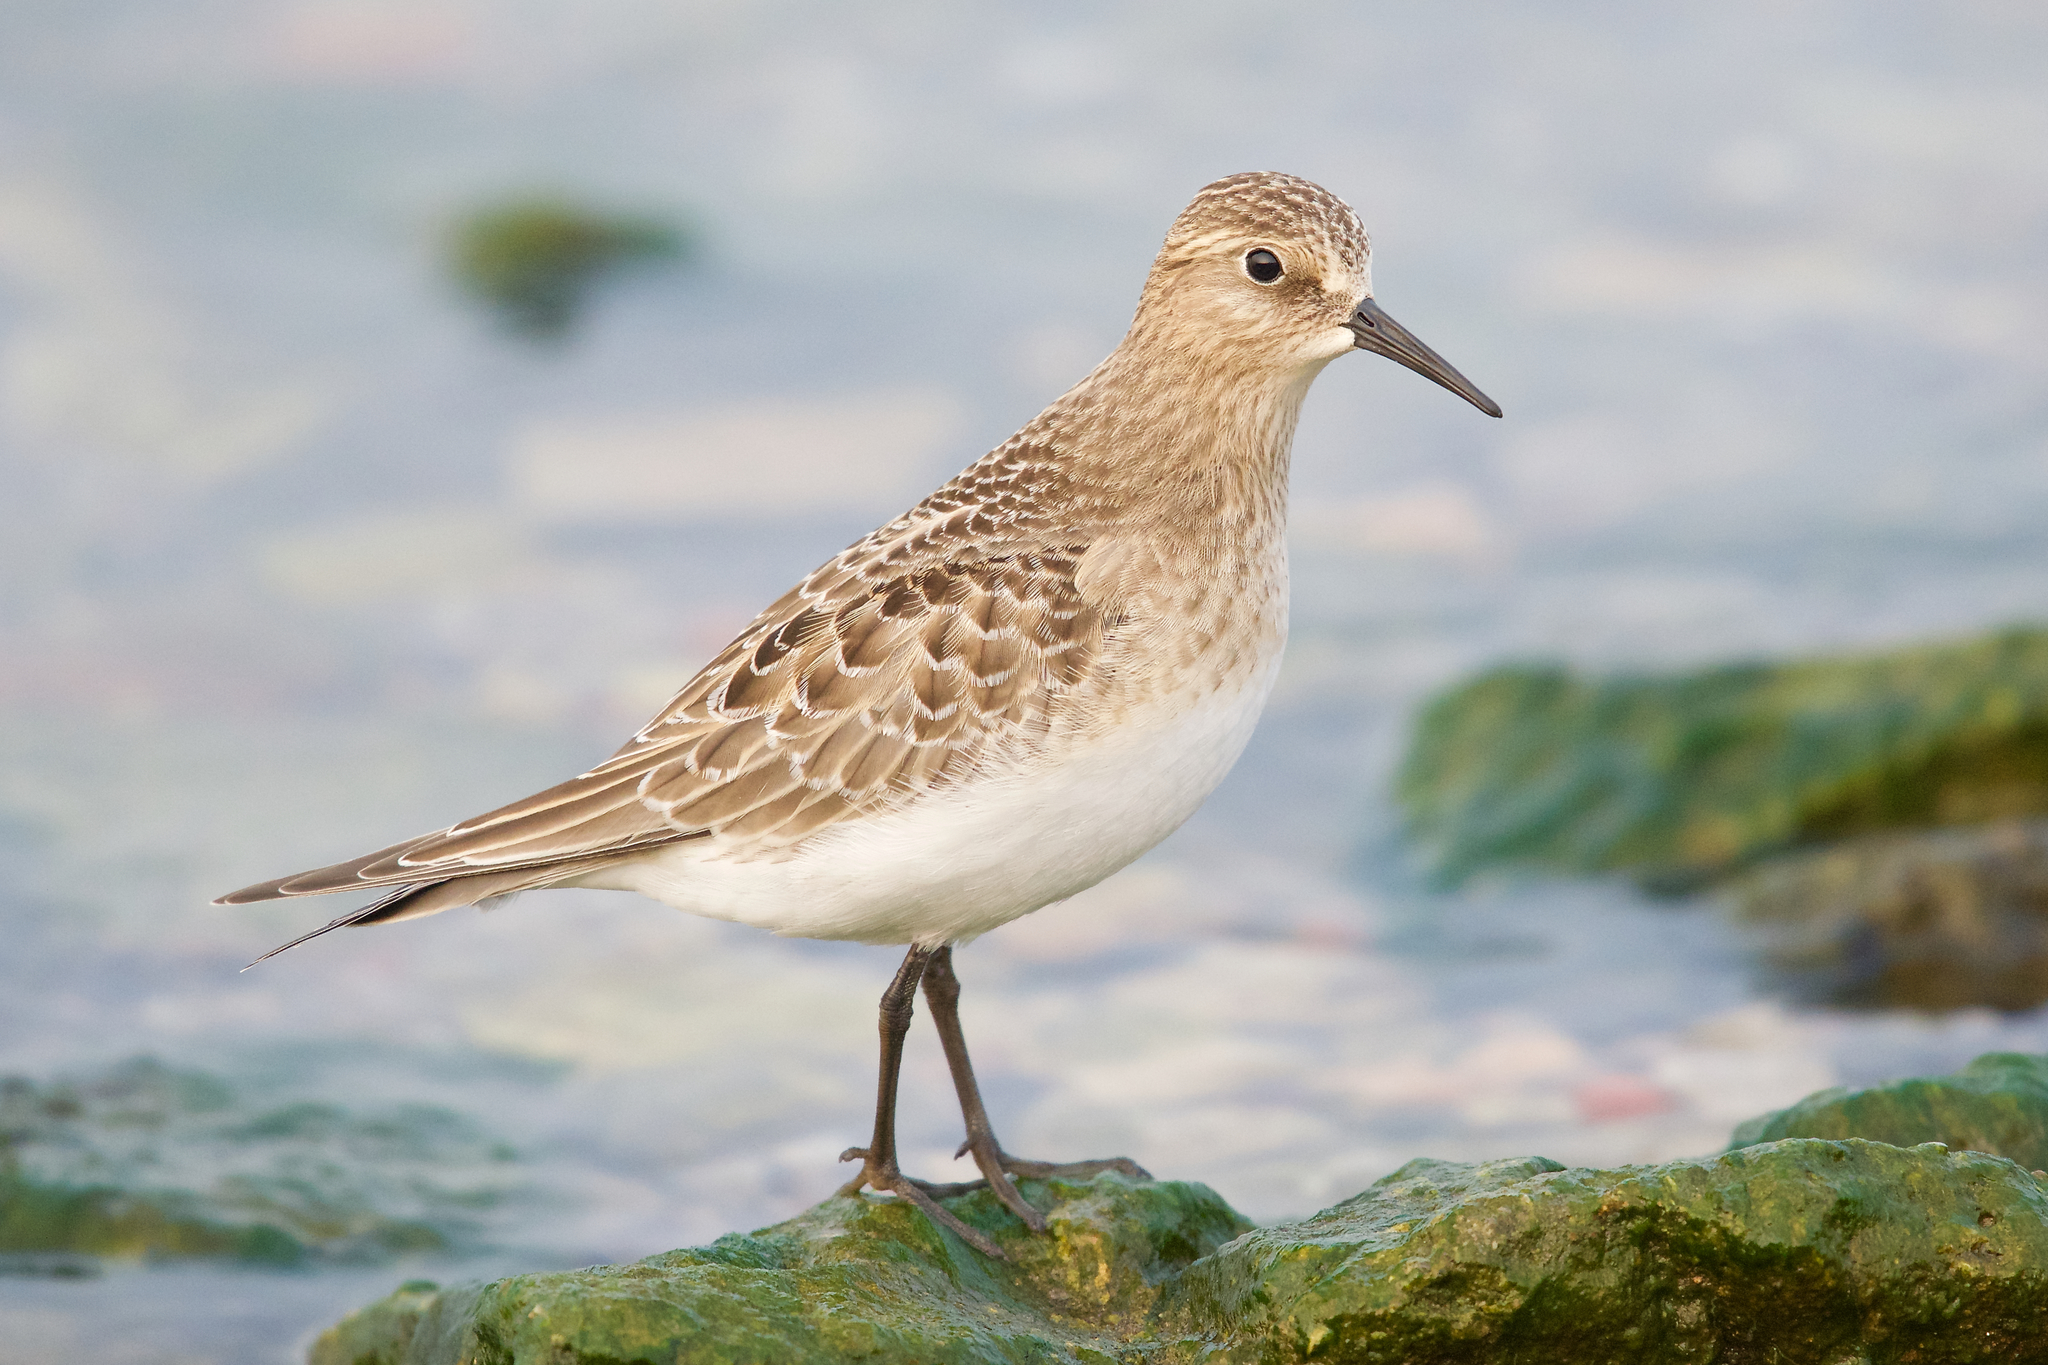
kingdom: Animalia
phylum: Chordata
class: Aves
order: Charadriiformes
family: Scolopacidae
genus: Calidris
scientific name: Calidris bairdii
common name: Baird's sandpiper
